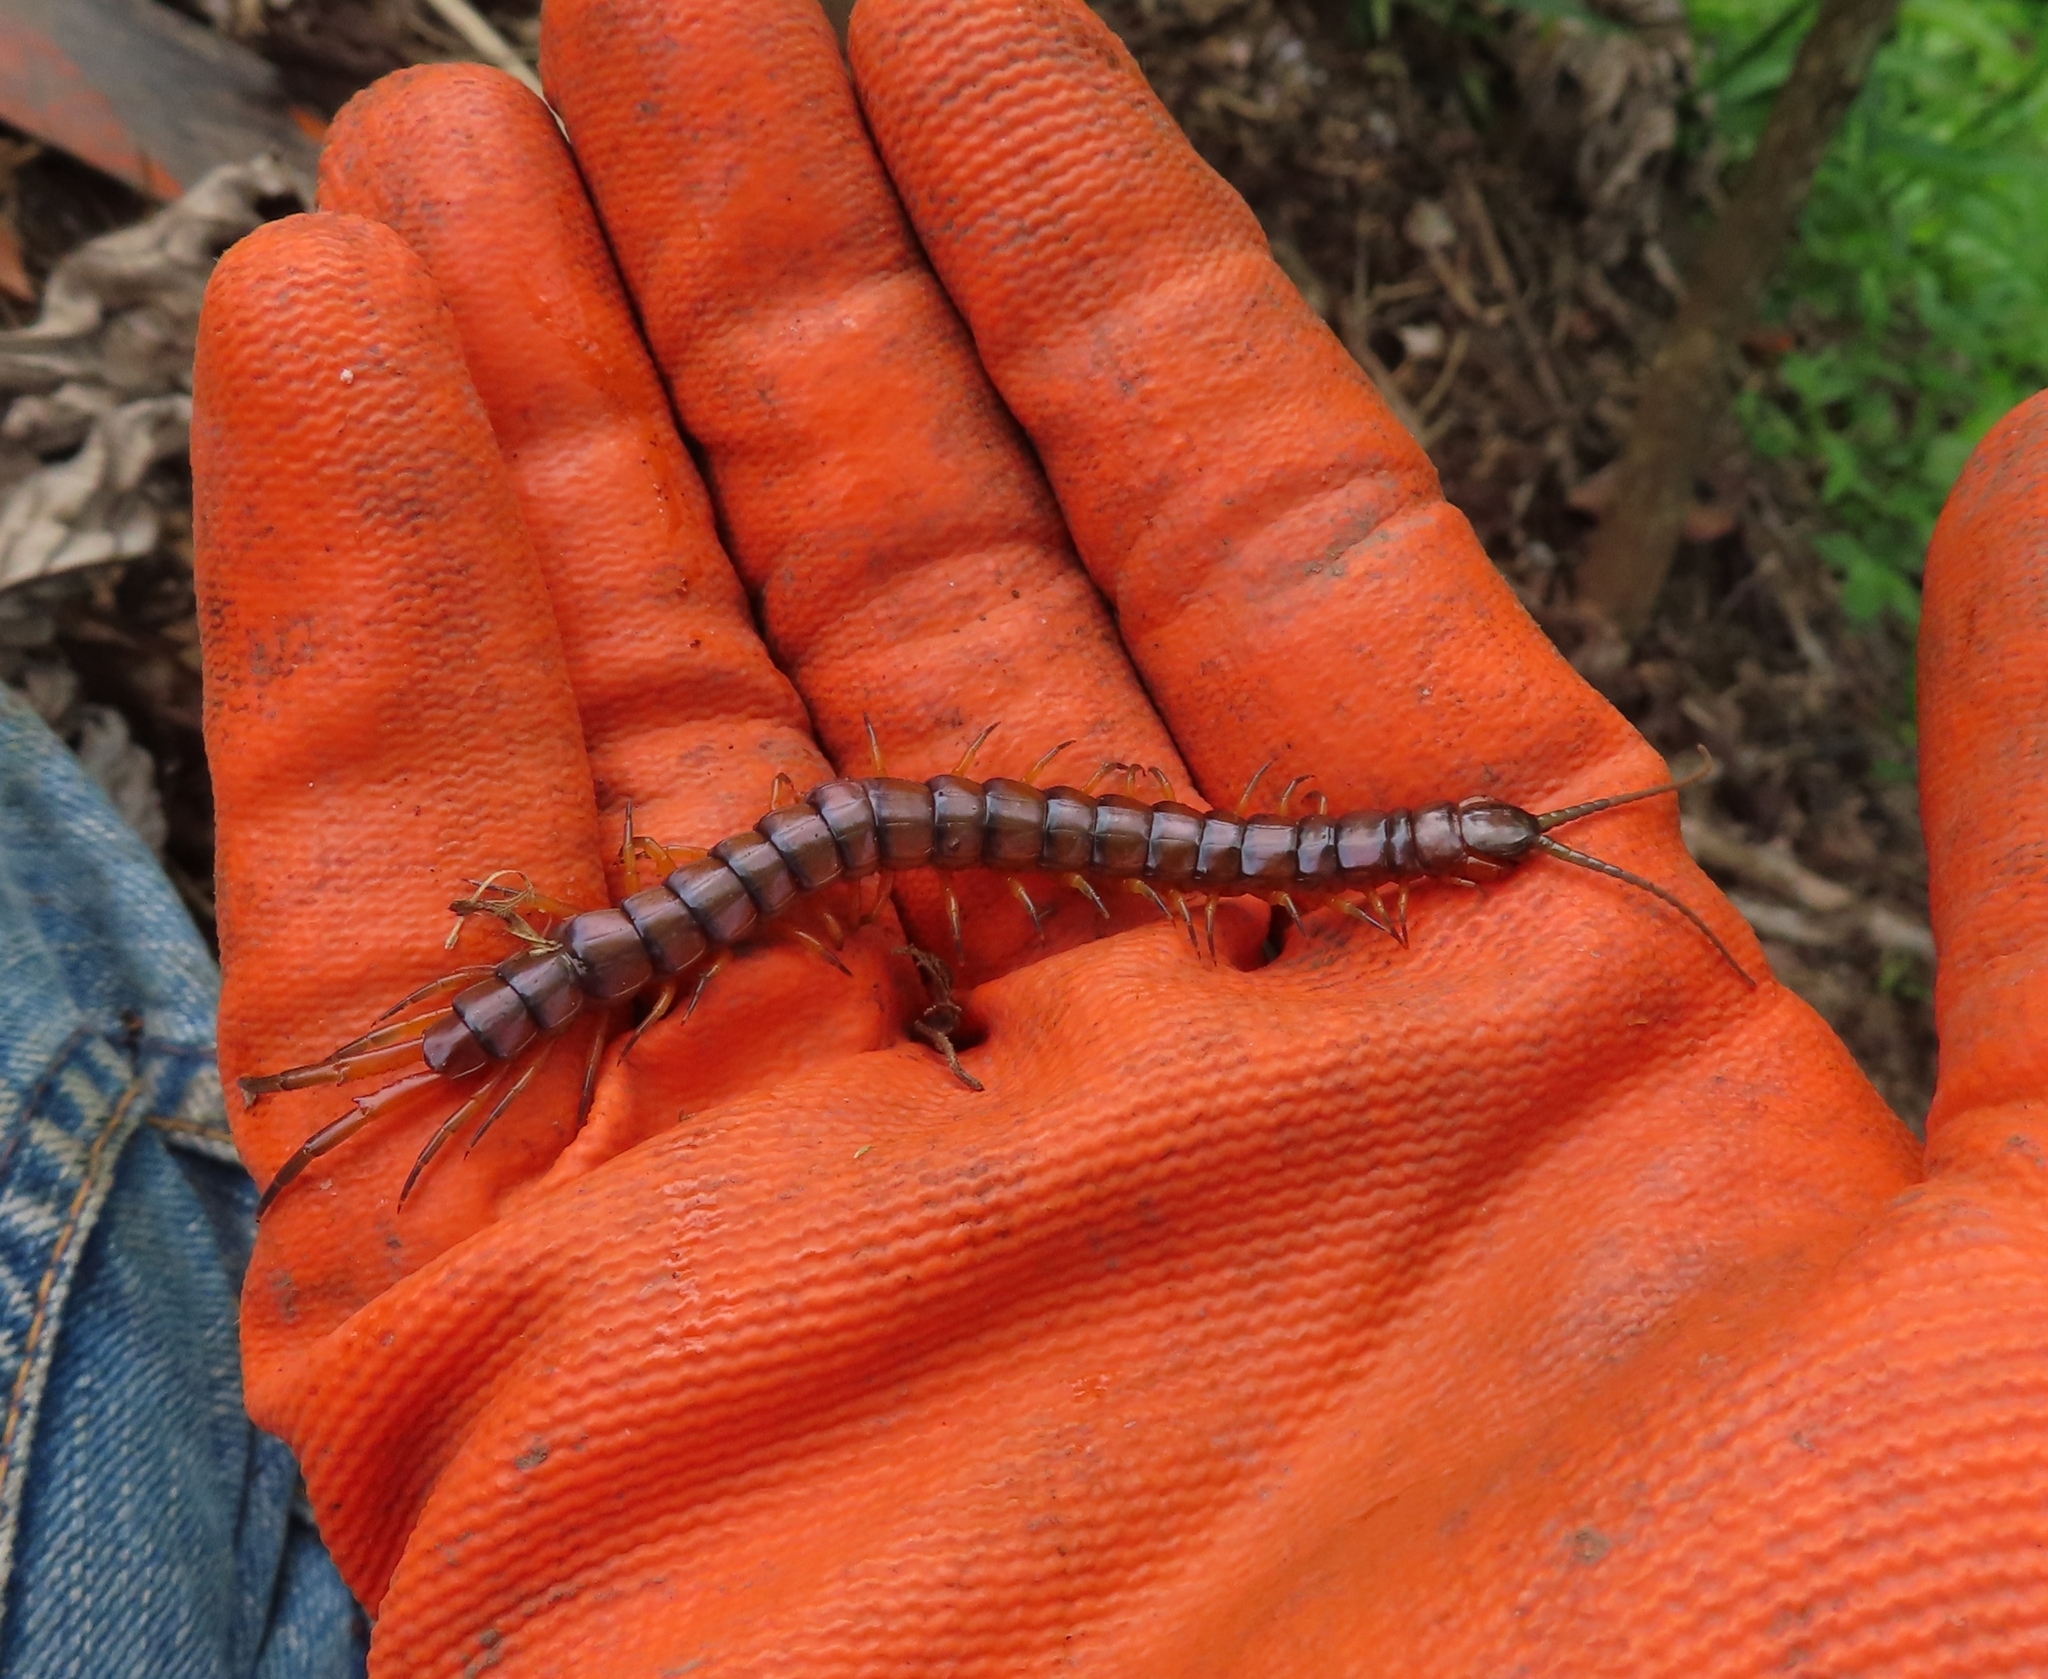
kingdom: Animalia
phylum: Arthropoda
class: Chilopoda
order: Scolopendromorpha
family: Scolopendridae
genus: Scolopendra
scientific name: Scolopendra alternans
